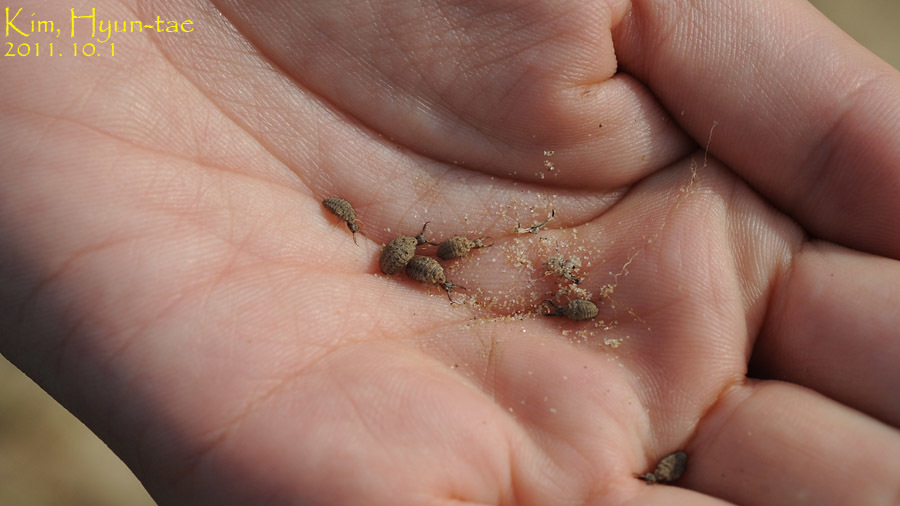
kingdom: Animalia
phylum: Arthropoda
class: Insecta
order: Neuroptera
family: Myrmeleontidae
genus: Hagenomyia
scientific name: Hagenomyia micans
